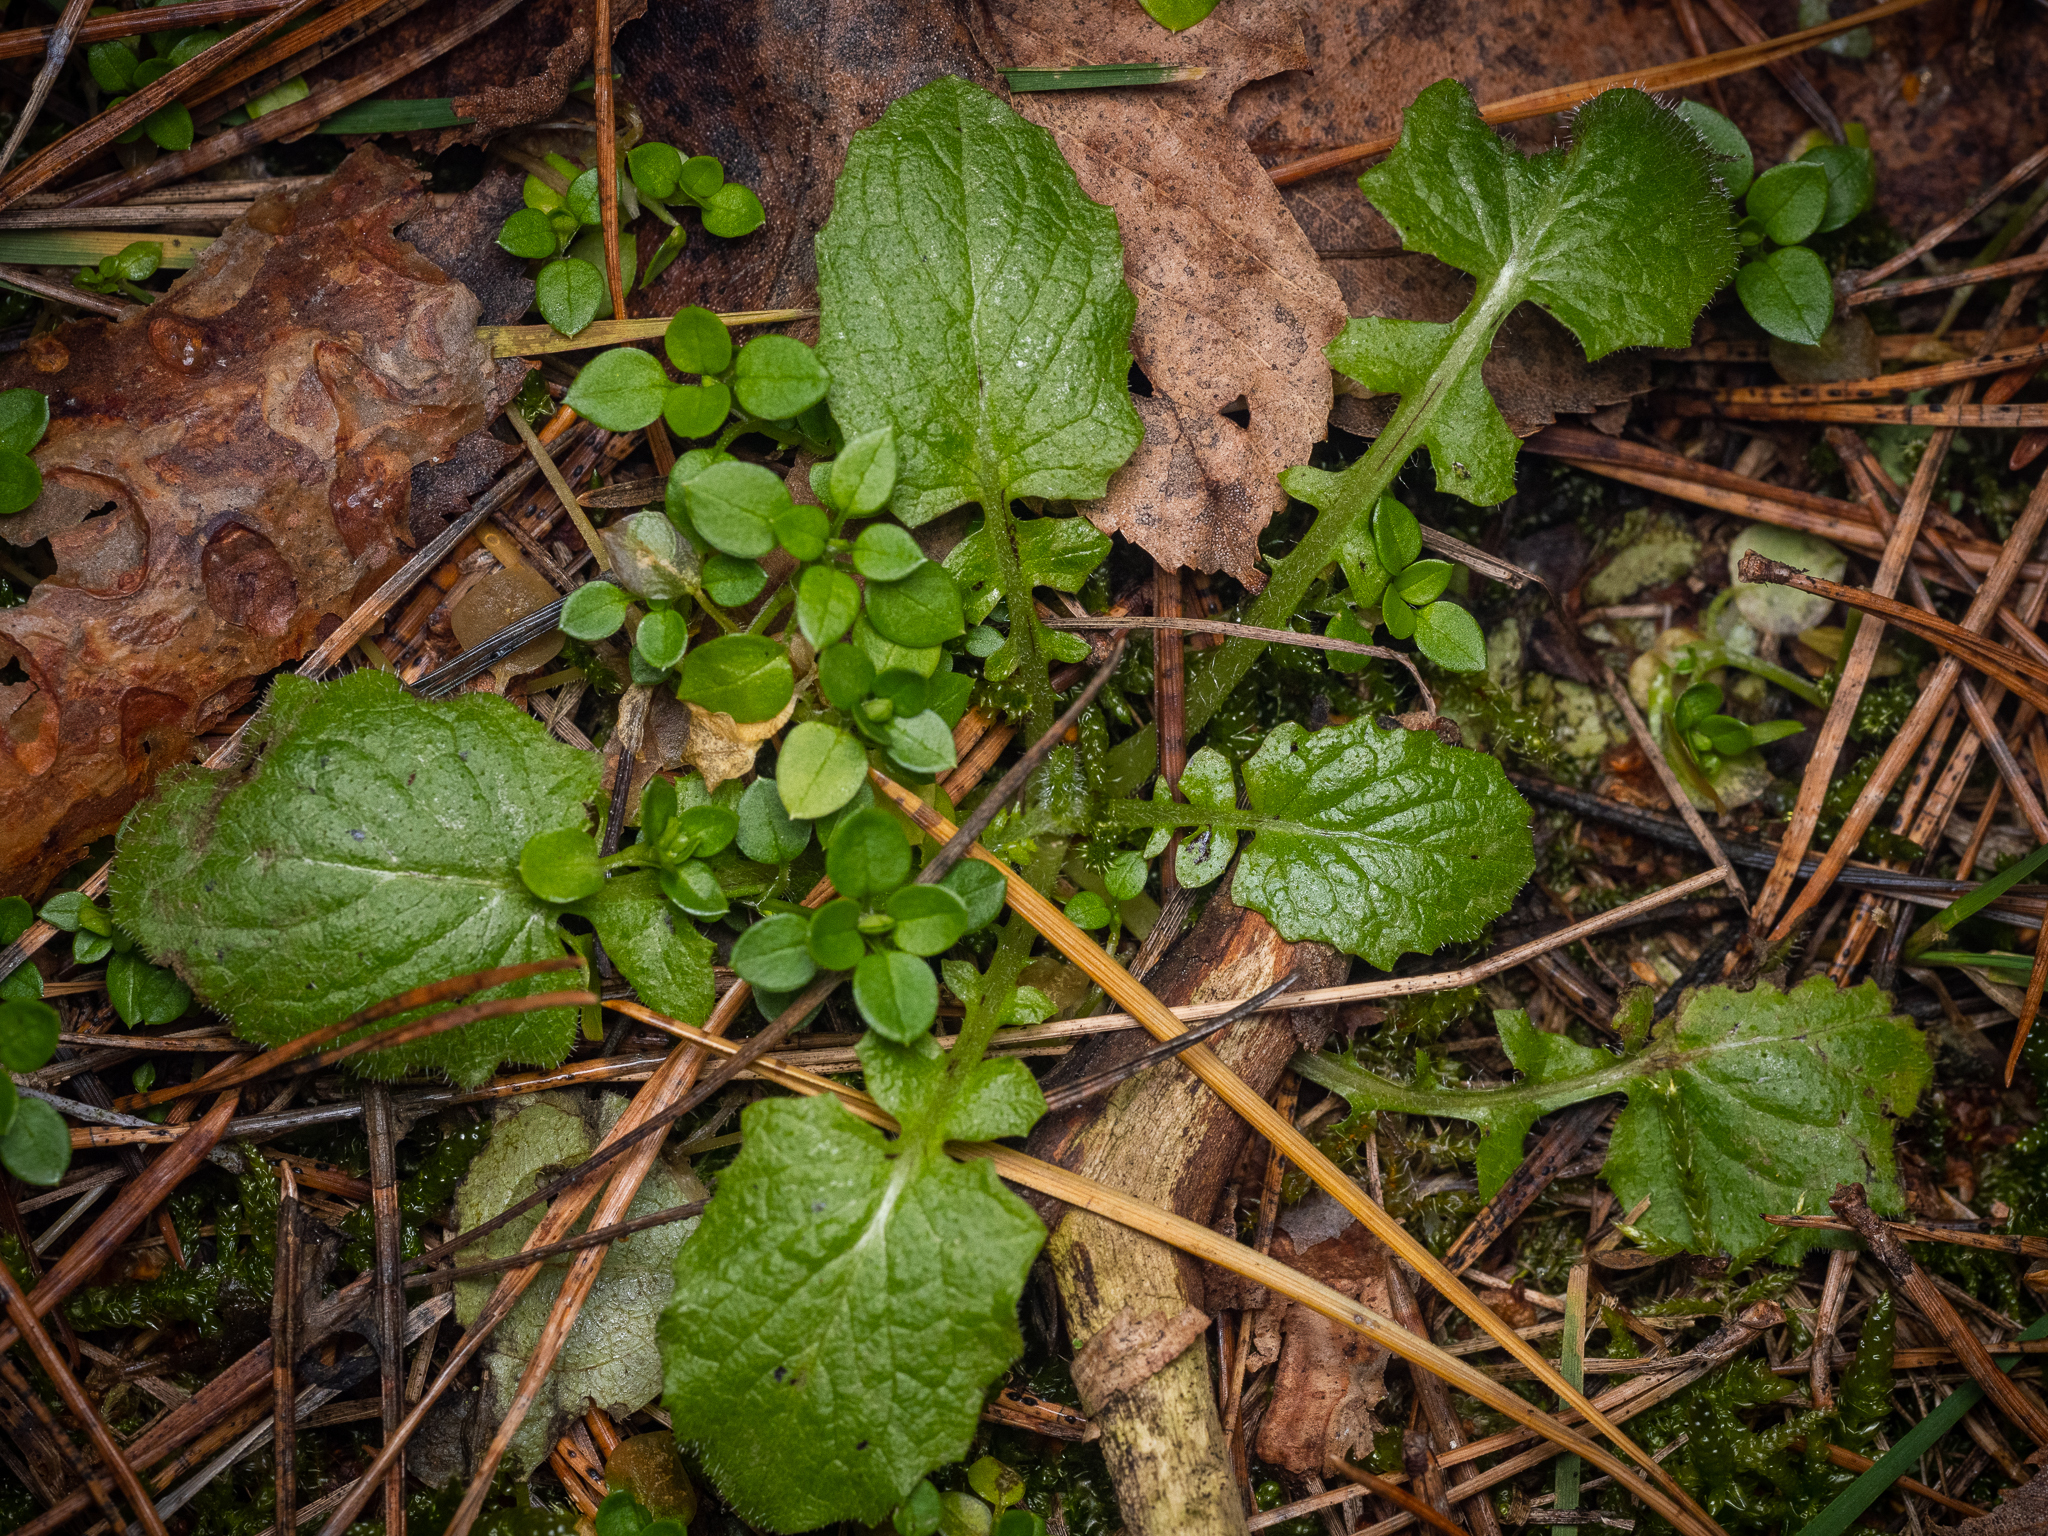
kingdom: Plantae
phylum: Tracheophyta
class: Magnoliopsida
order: Asterales
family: Asteraceae
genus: Lapsana
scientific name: Lapsana communis
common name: Nipplewort
